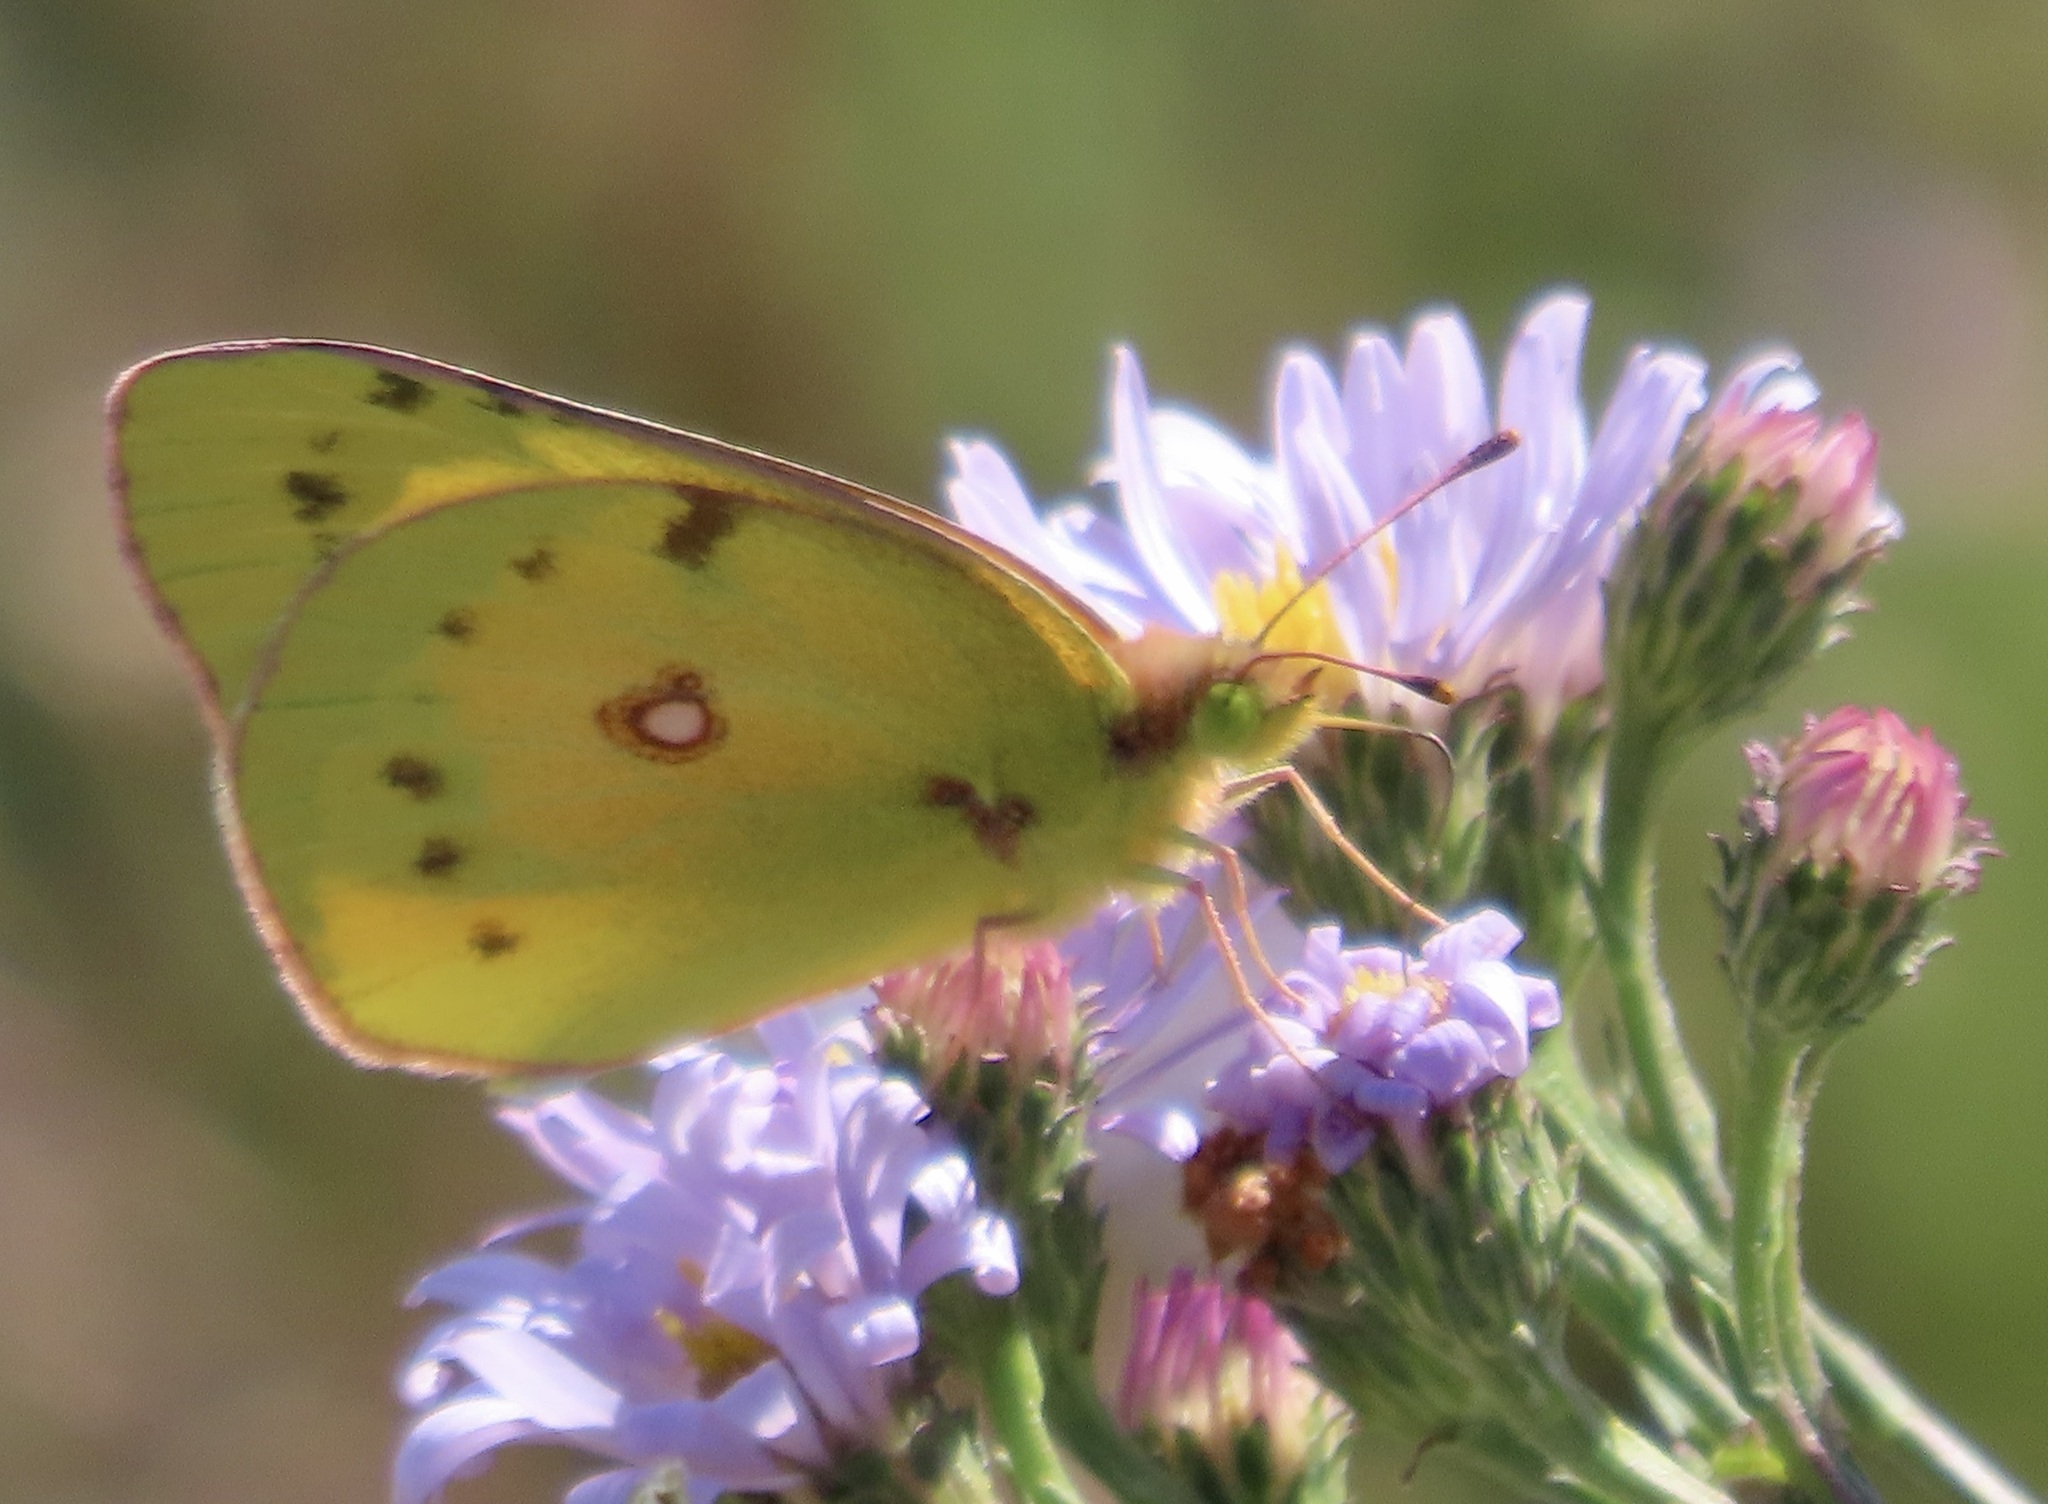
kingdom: Animalia
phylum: Arthropoda
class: Insecta
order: Lepidoptera
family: Pieridae
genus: Colias
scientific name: Colias eurytheme
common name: Alfalfa butterfly
